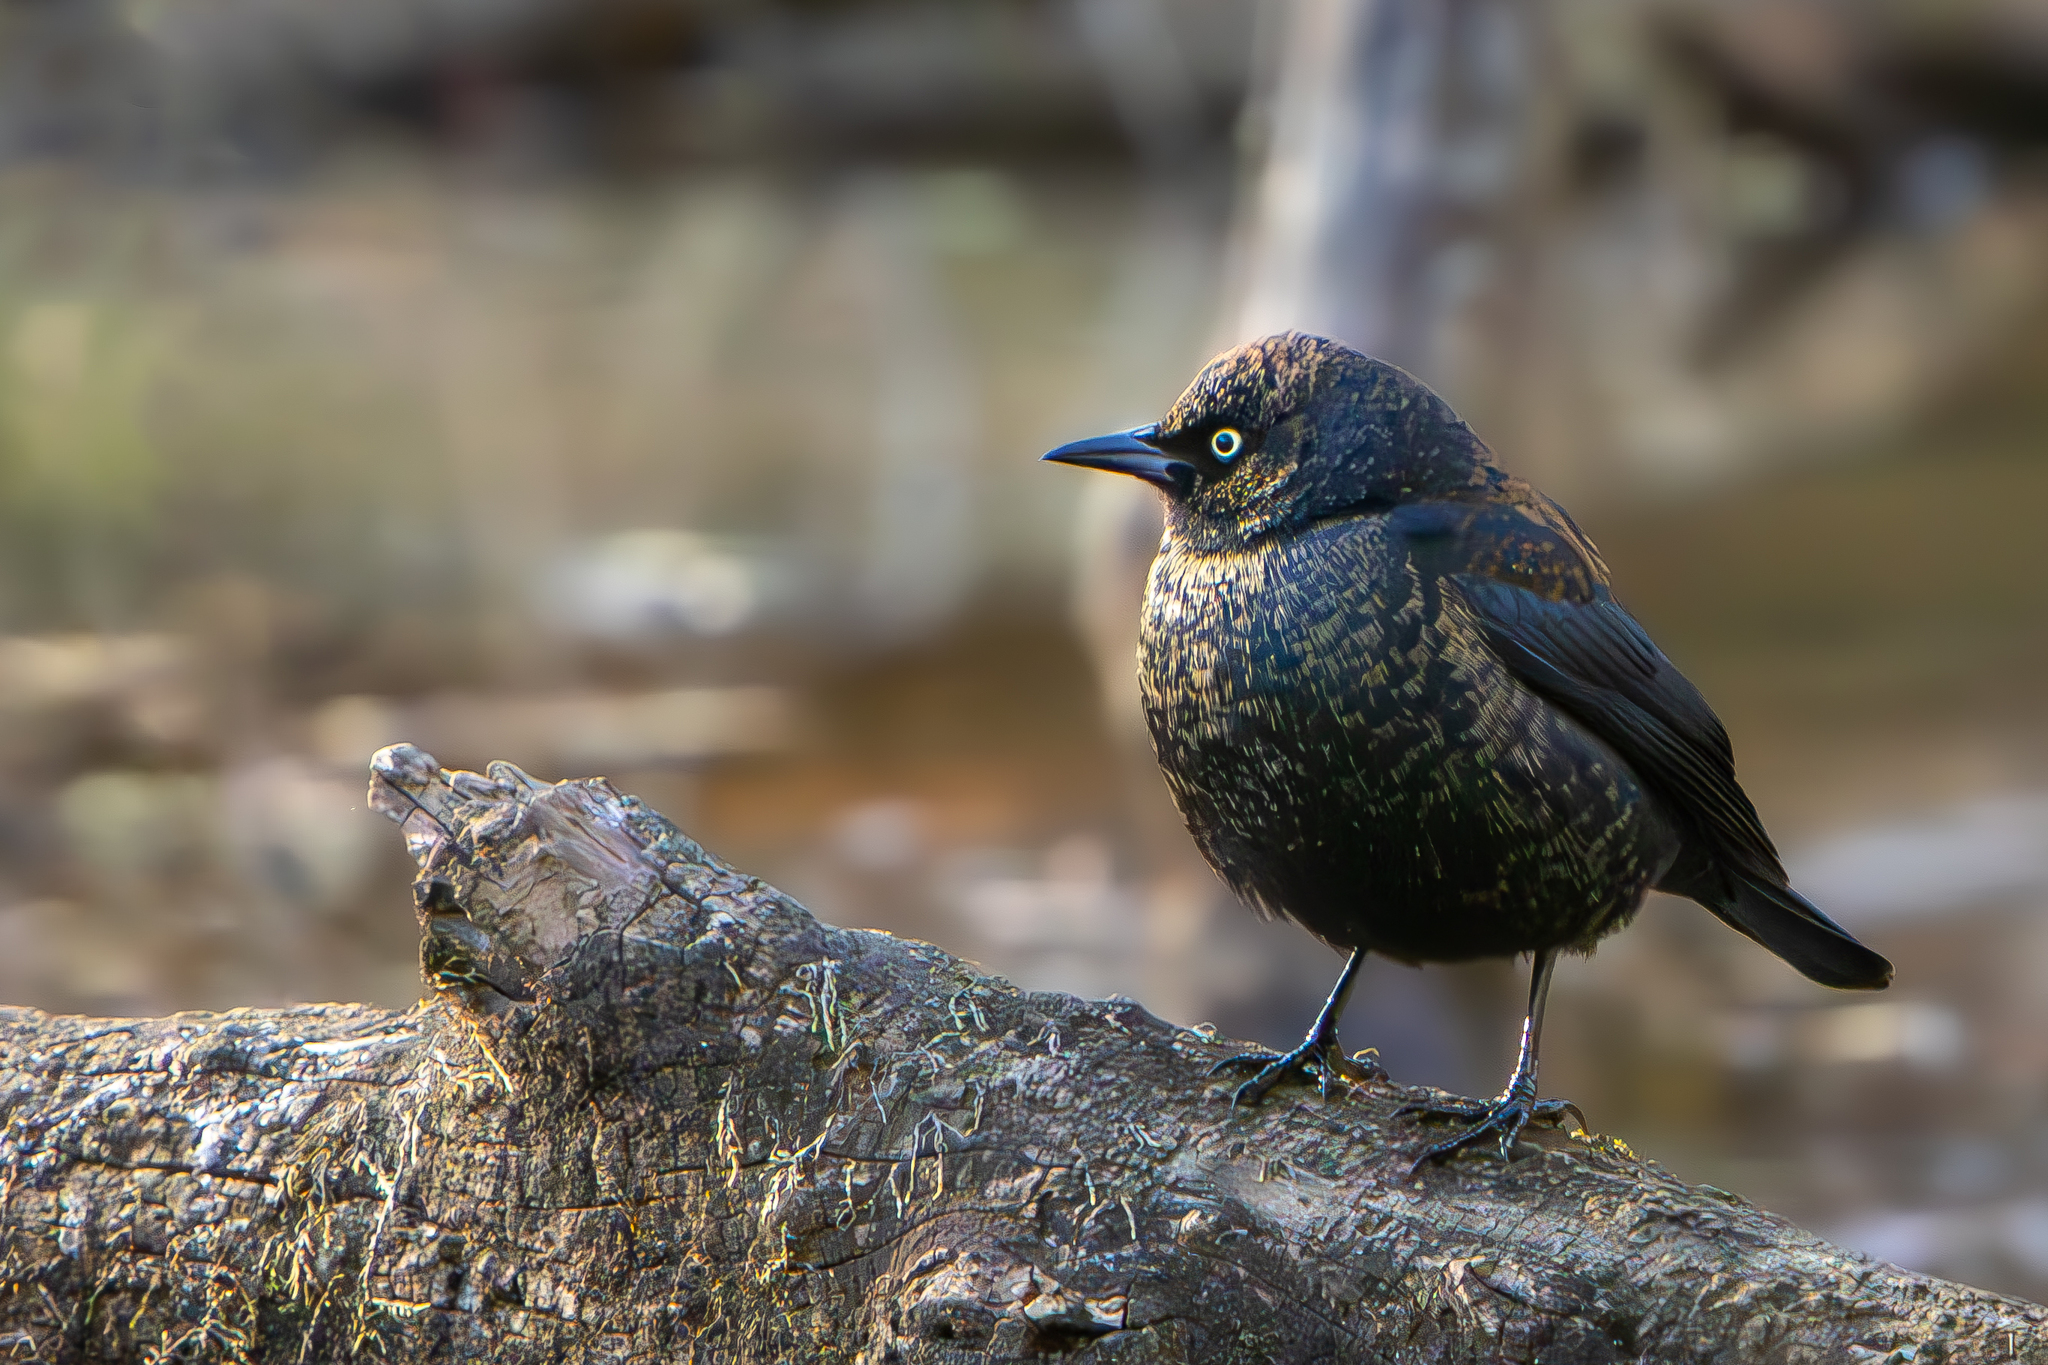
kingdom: Animalia
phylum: Chordata
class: Aves
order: Passeriformes
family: Icteridae
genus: Euphagus
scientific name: Euphagus carolinus
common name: Rusty blackbird
